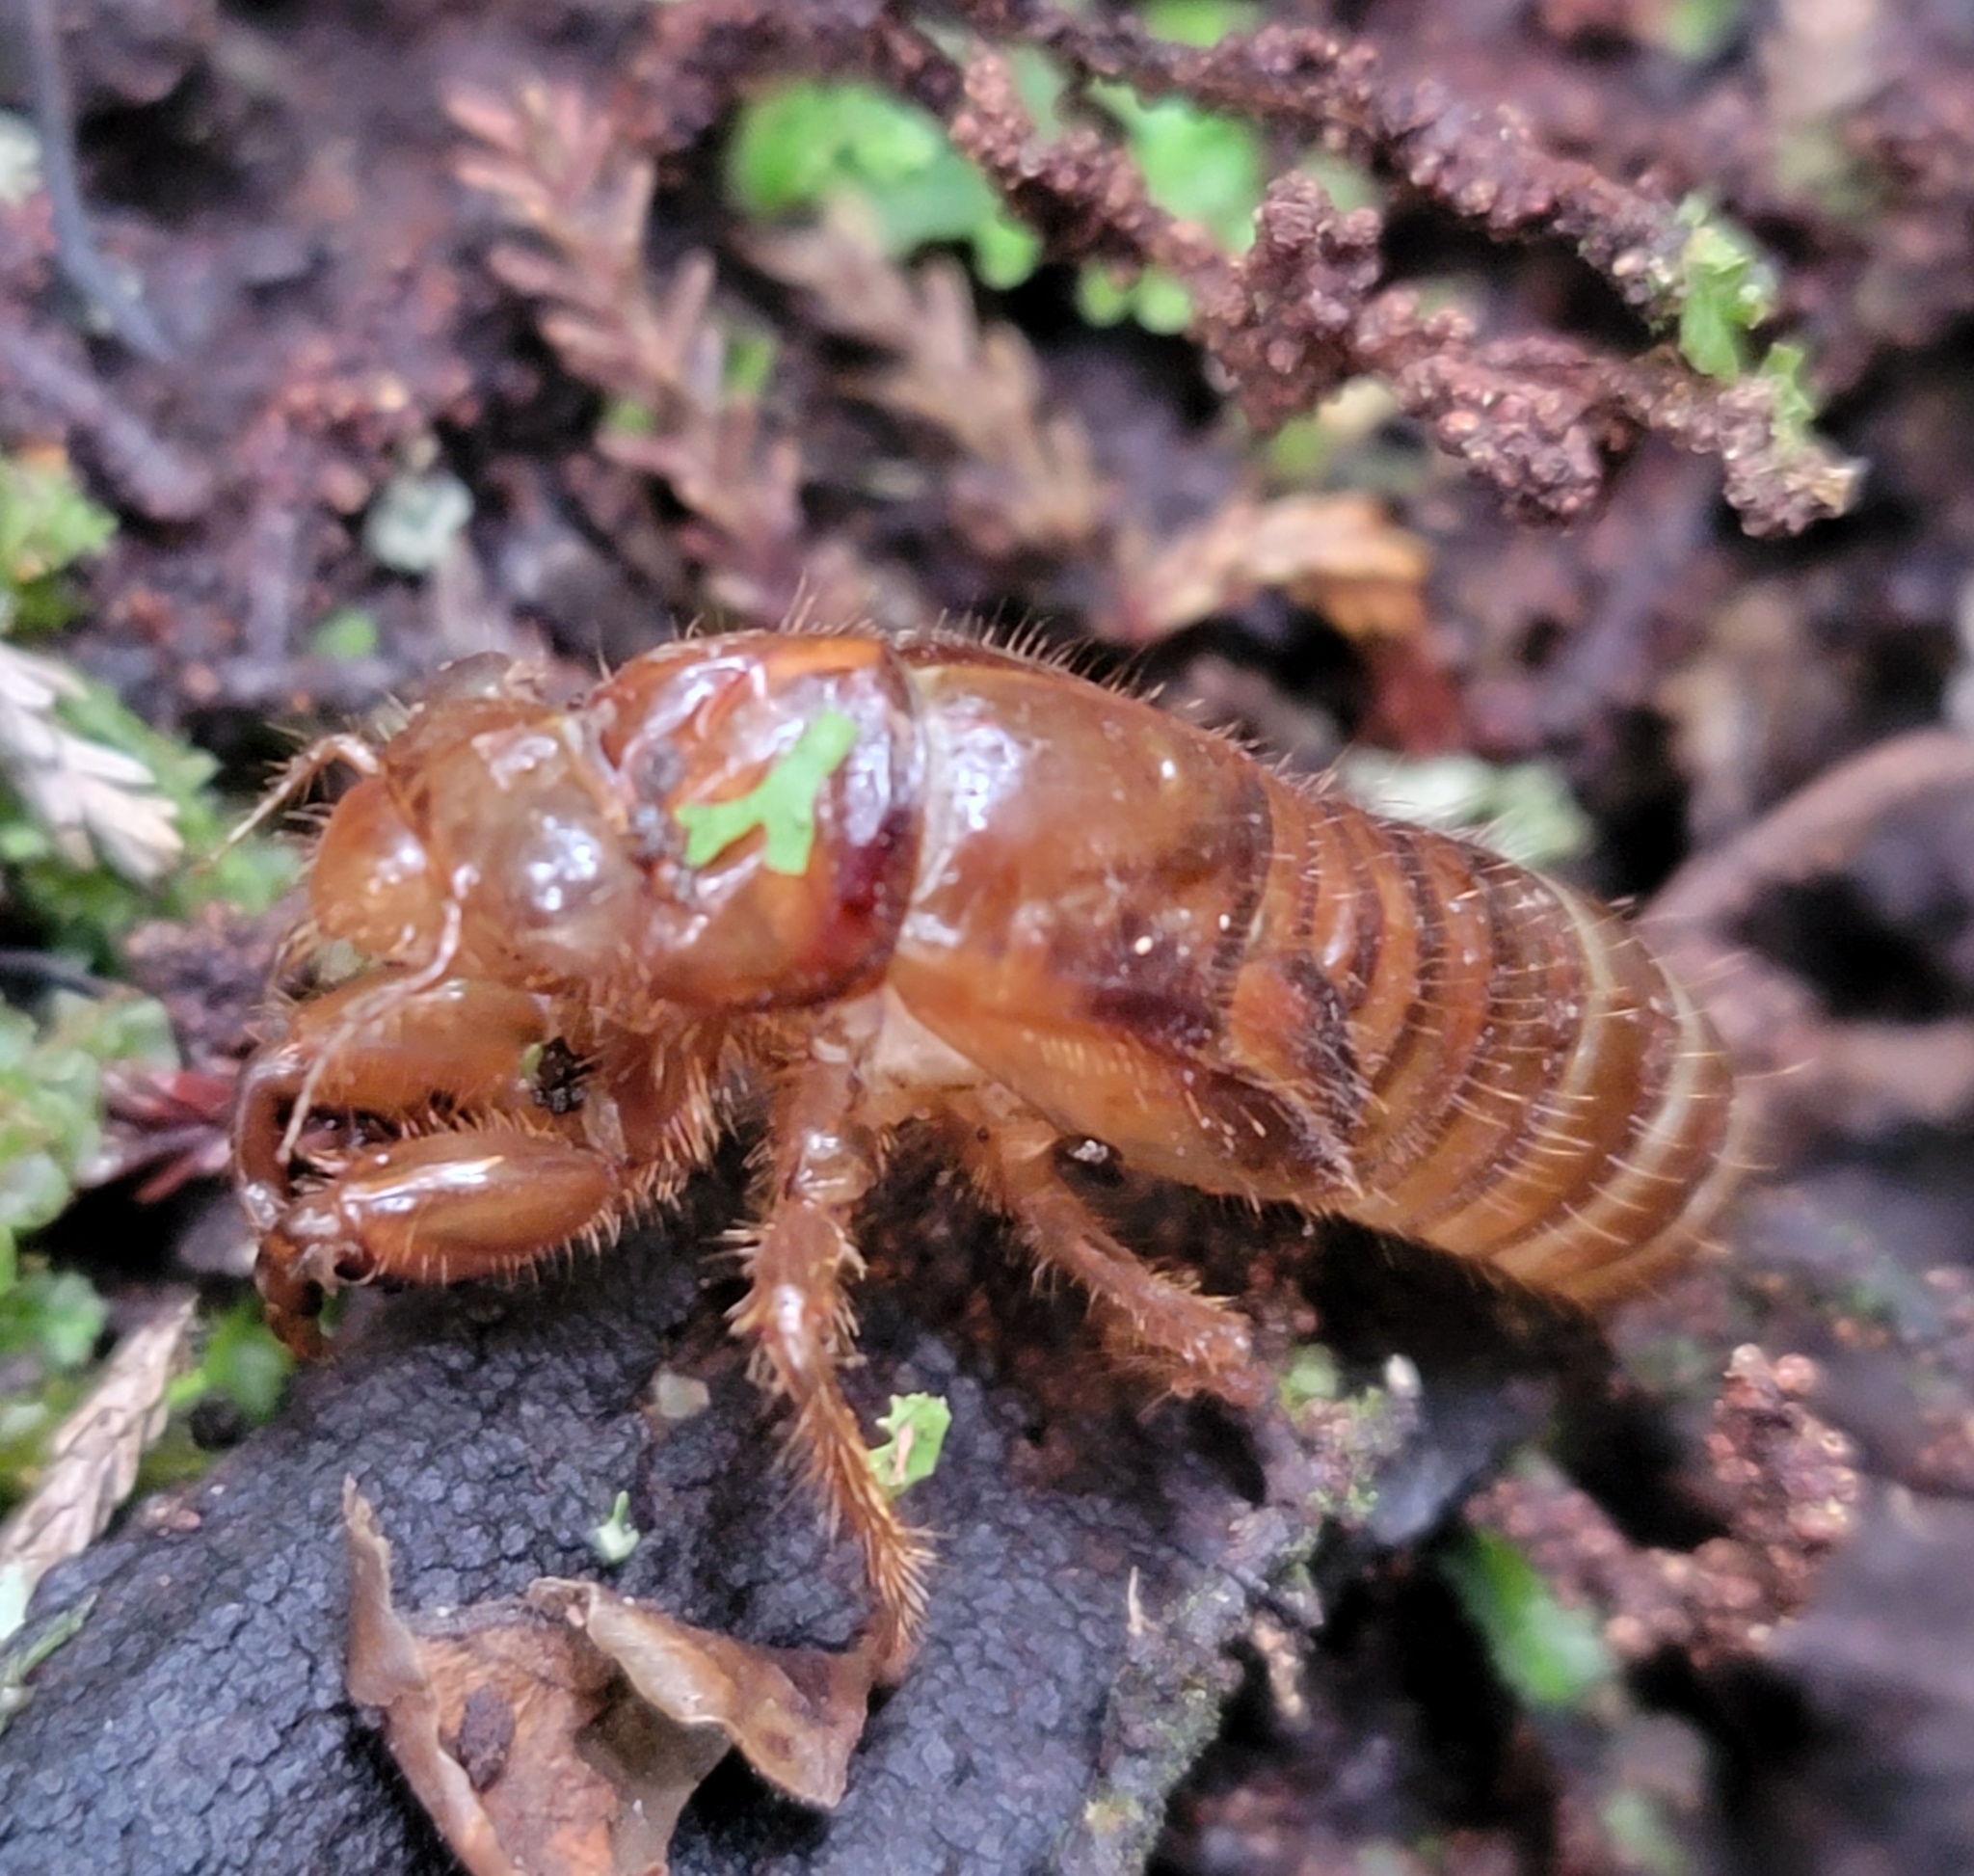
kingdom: Animalia
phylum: Arthropoda
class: Insecta
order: Hemiptera
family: Cicadidae
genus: Amphipsalta
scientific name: Amphipsalta zelandica
